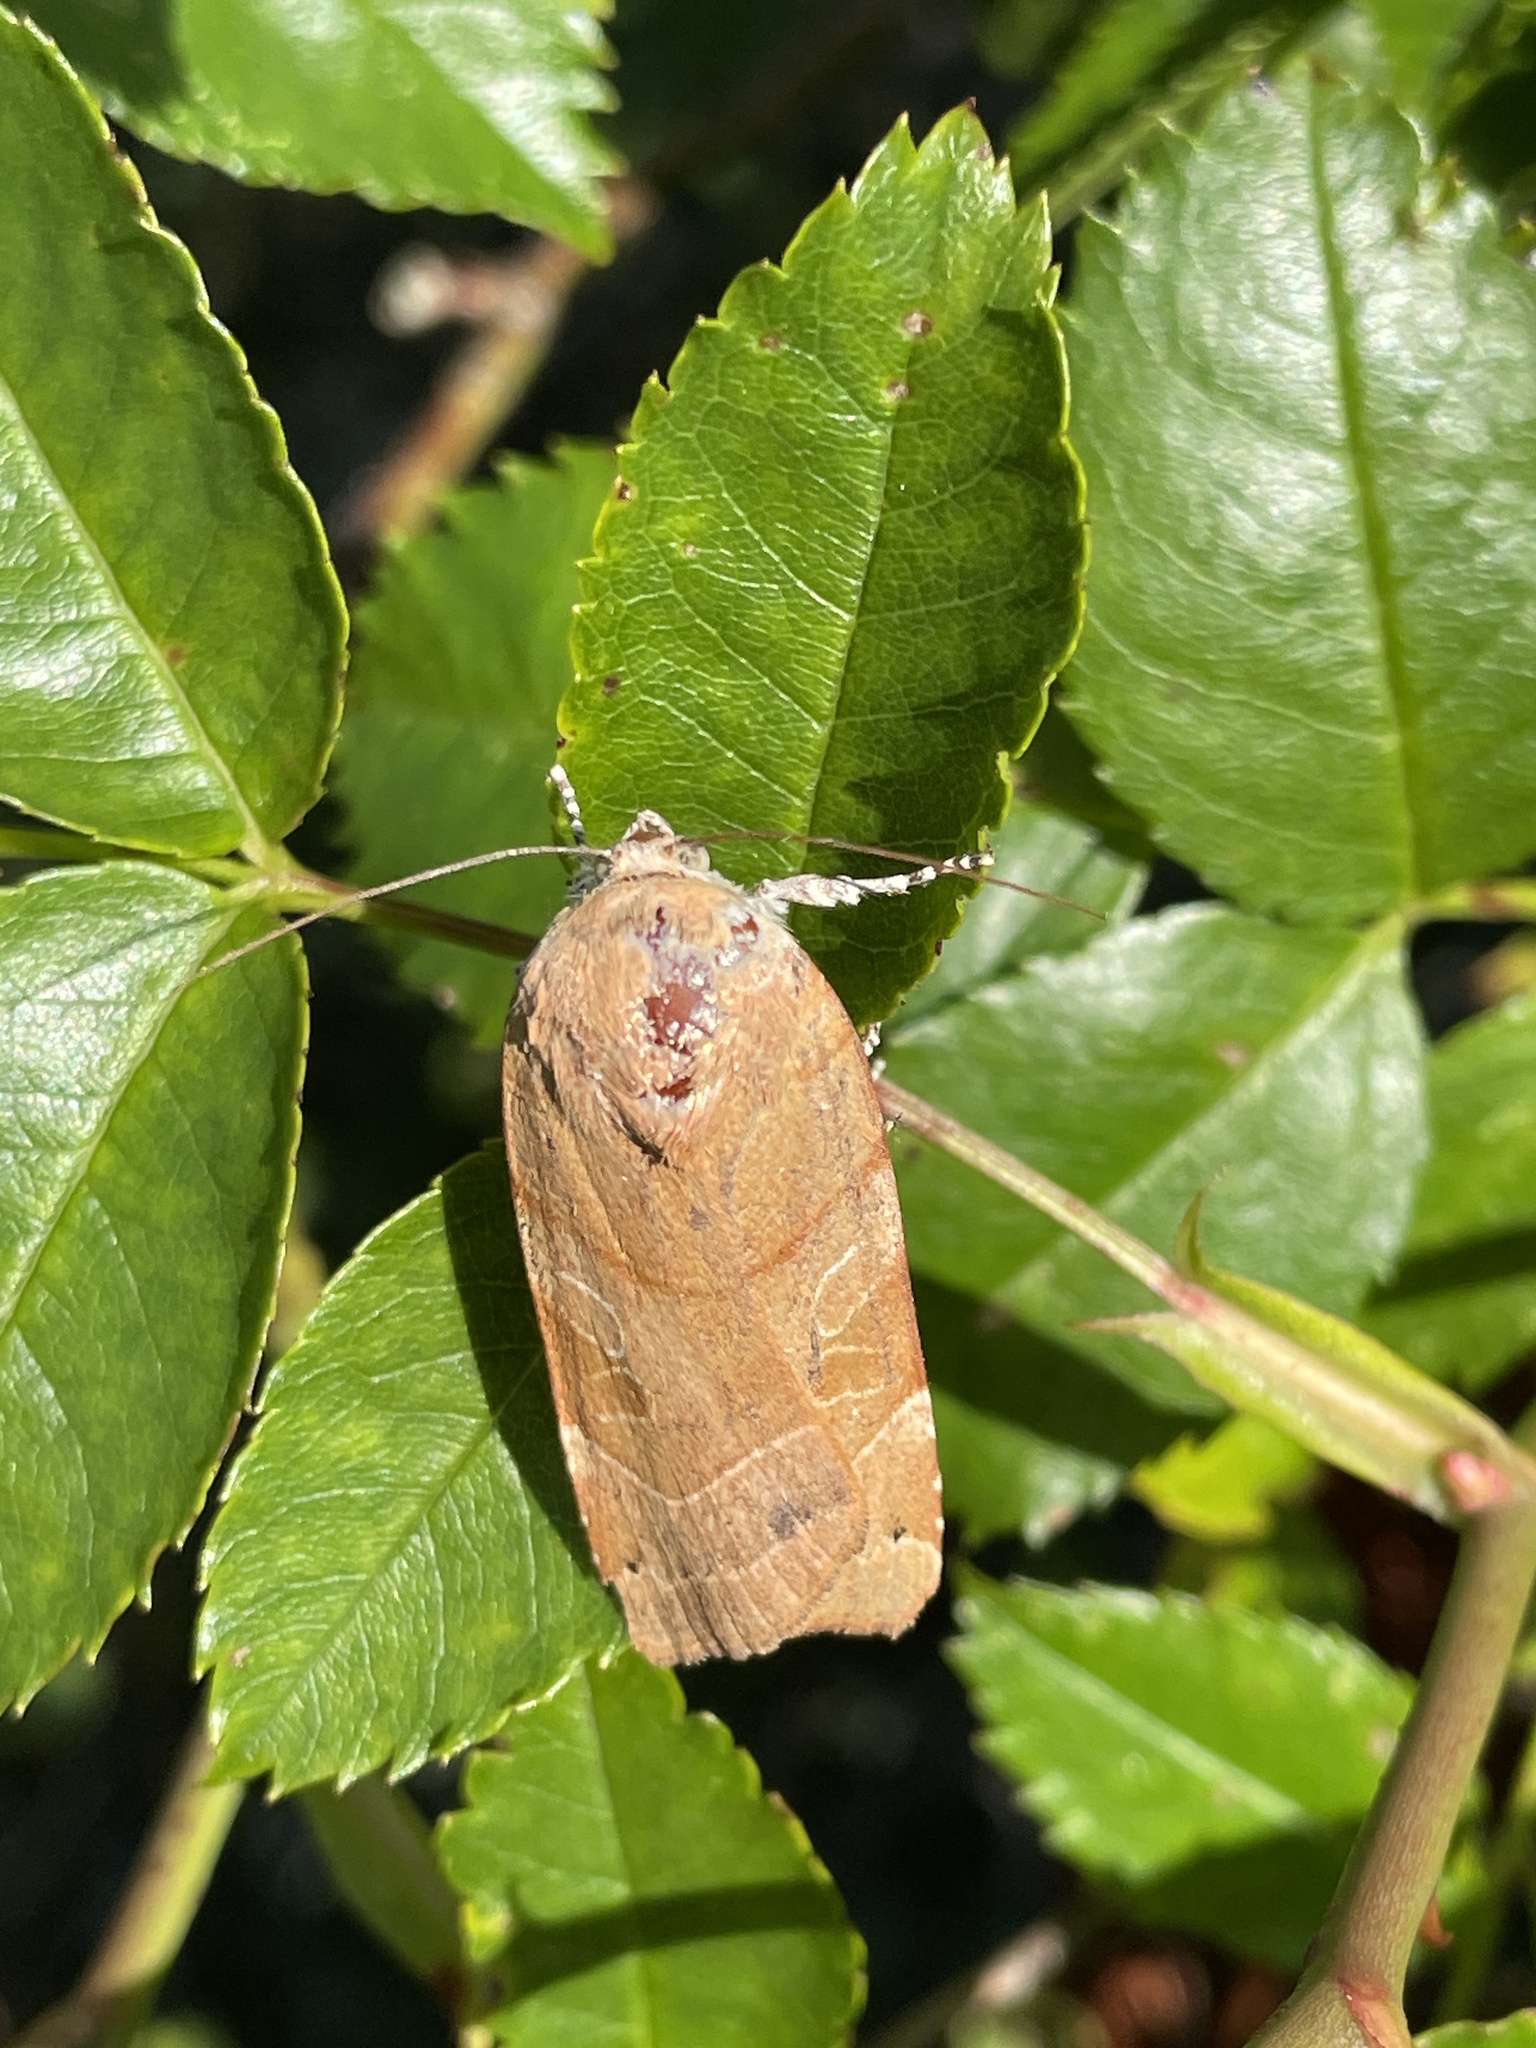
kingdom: Animalia
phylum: Arthropoda
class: Insecta
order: Lepidoptera
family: Noctuidae
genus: Noctua
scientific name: Noctua fimbriata
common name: Broad-bordered yellow underwing
